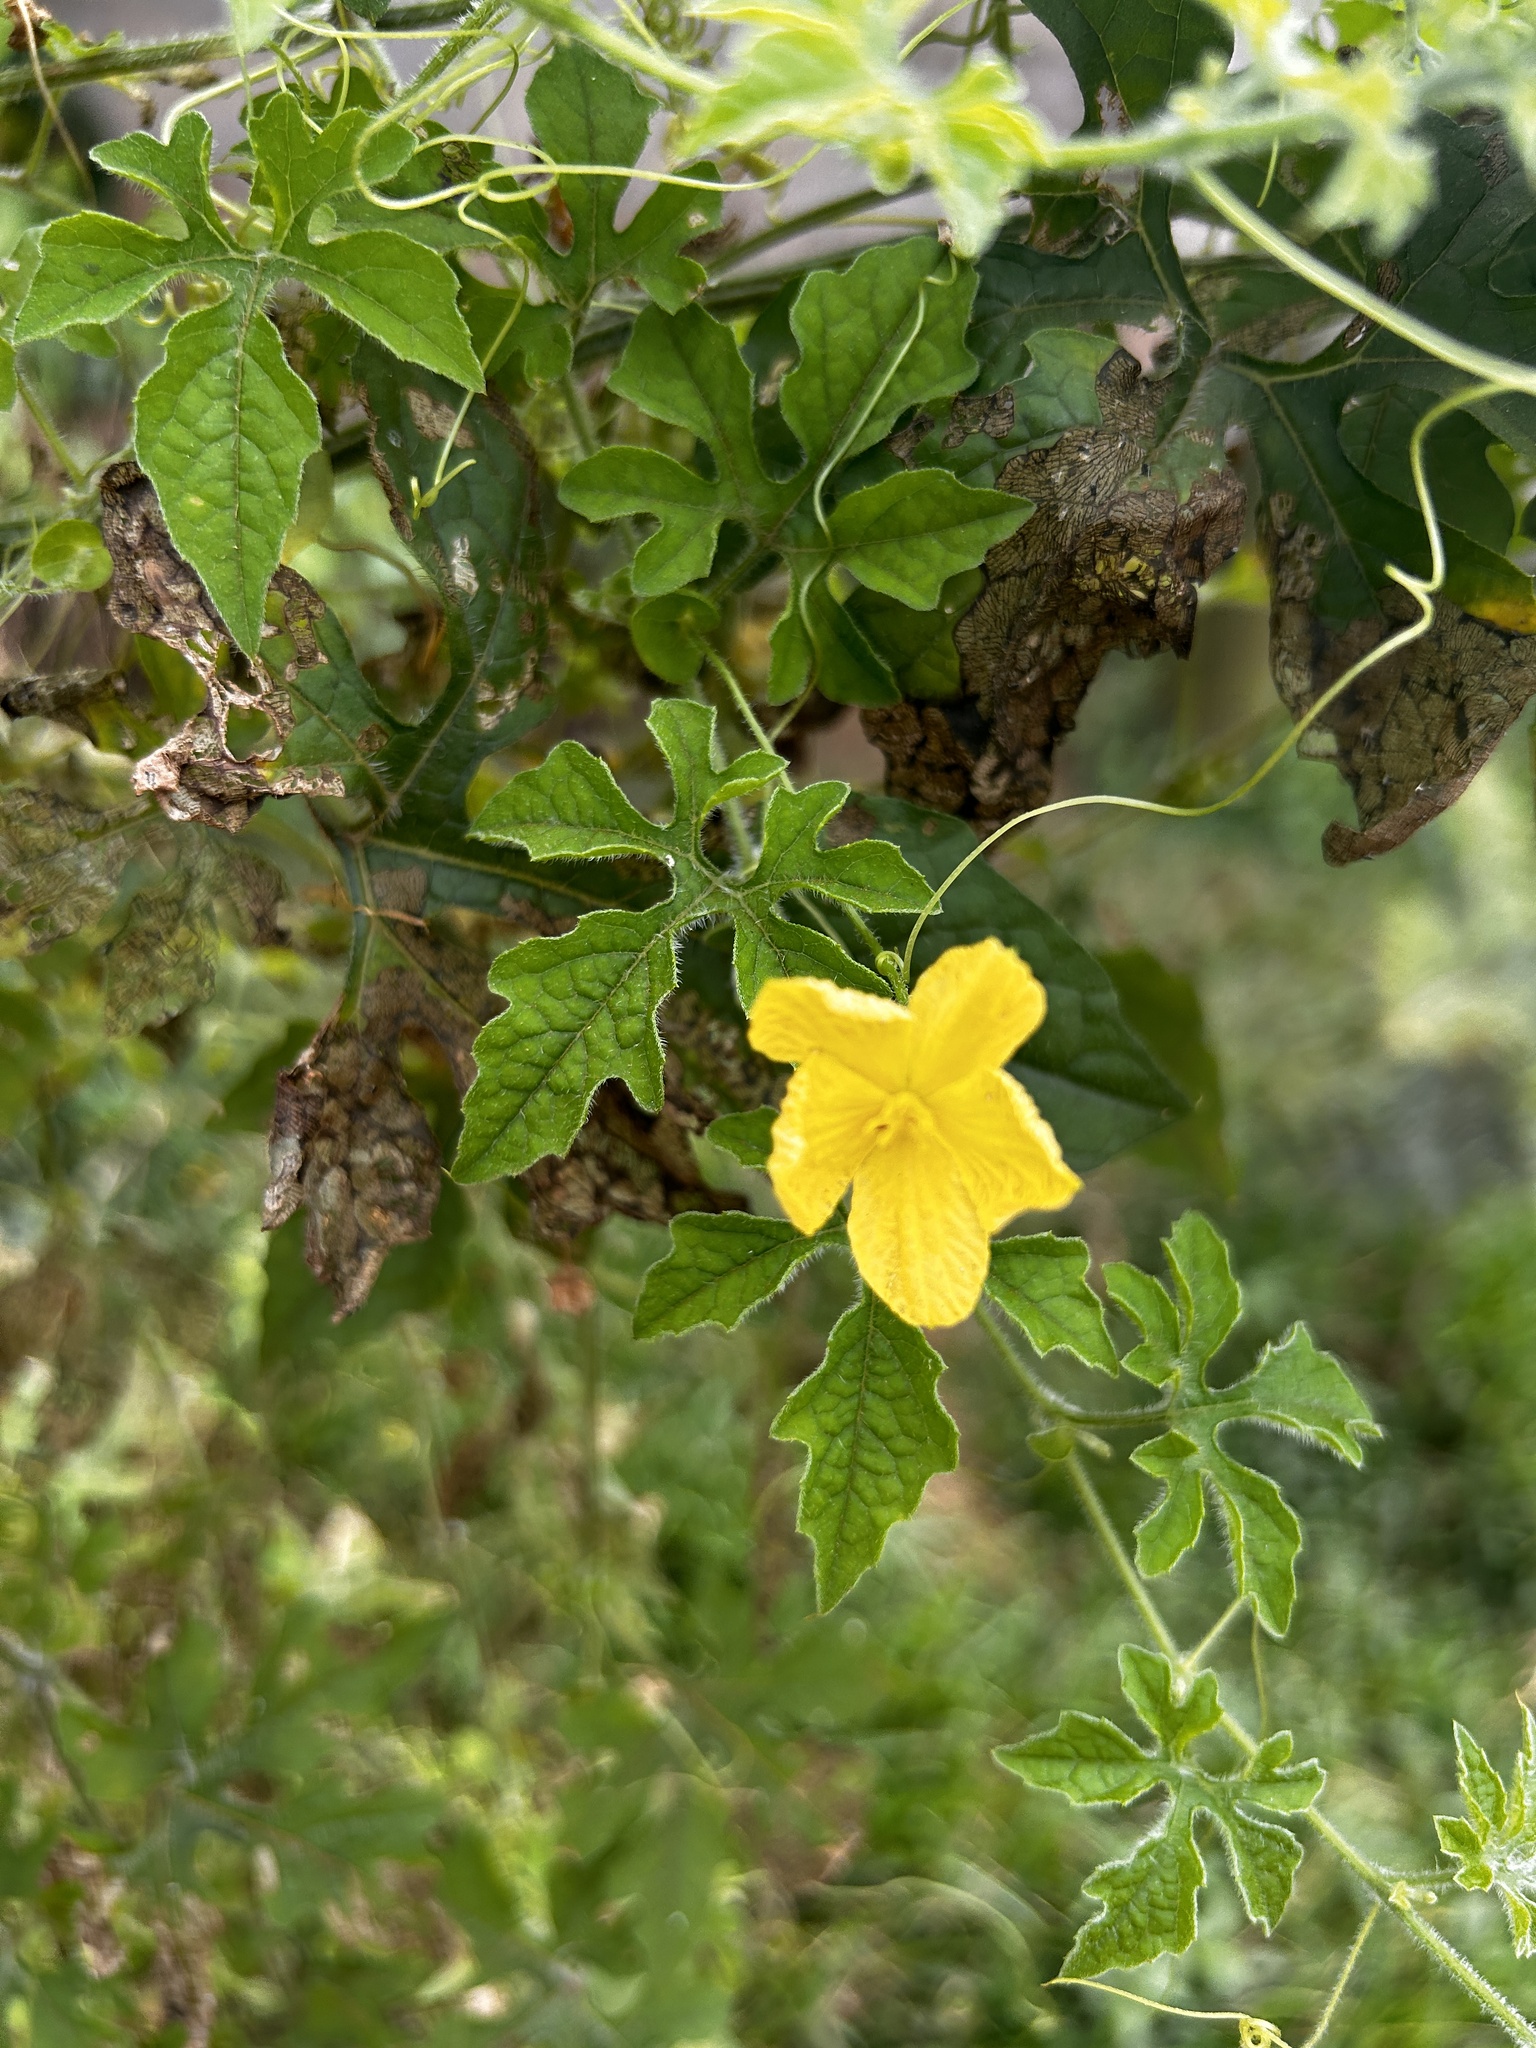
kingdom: Plantae
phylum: Tracheophyta
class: Magnoliopsida
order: Cucurbitales
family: Cucurbitaceae
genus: Momordica
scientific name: Momordica charantia
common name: Balsampear
